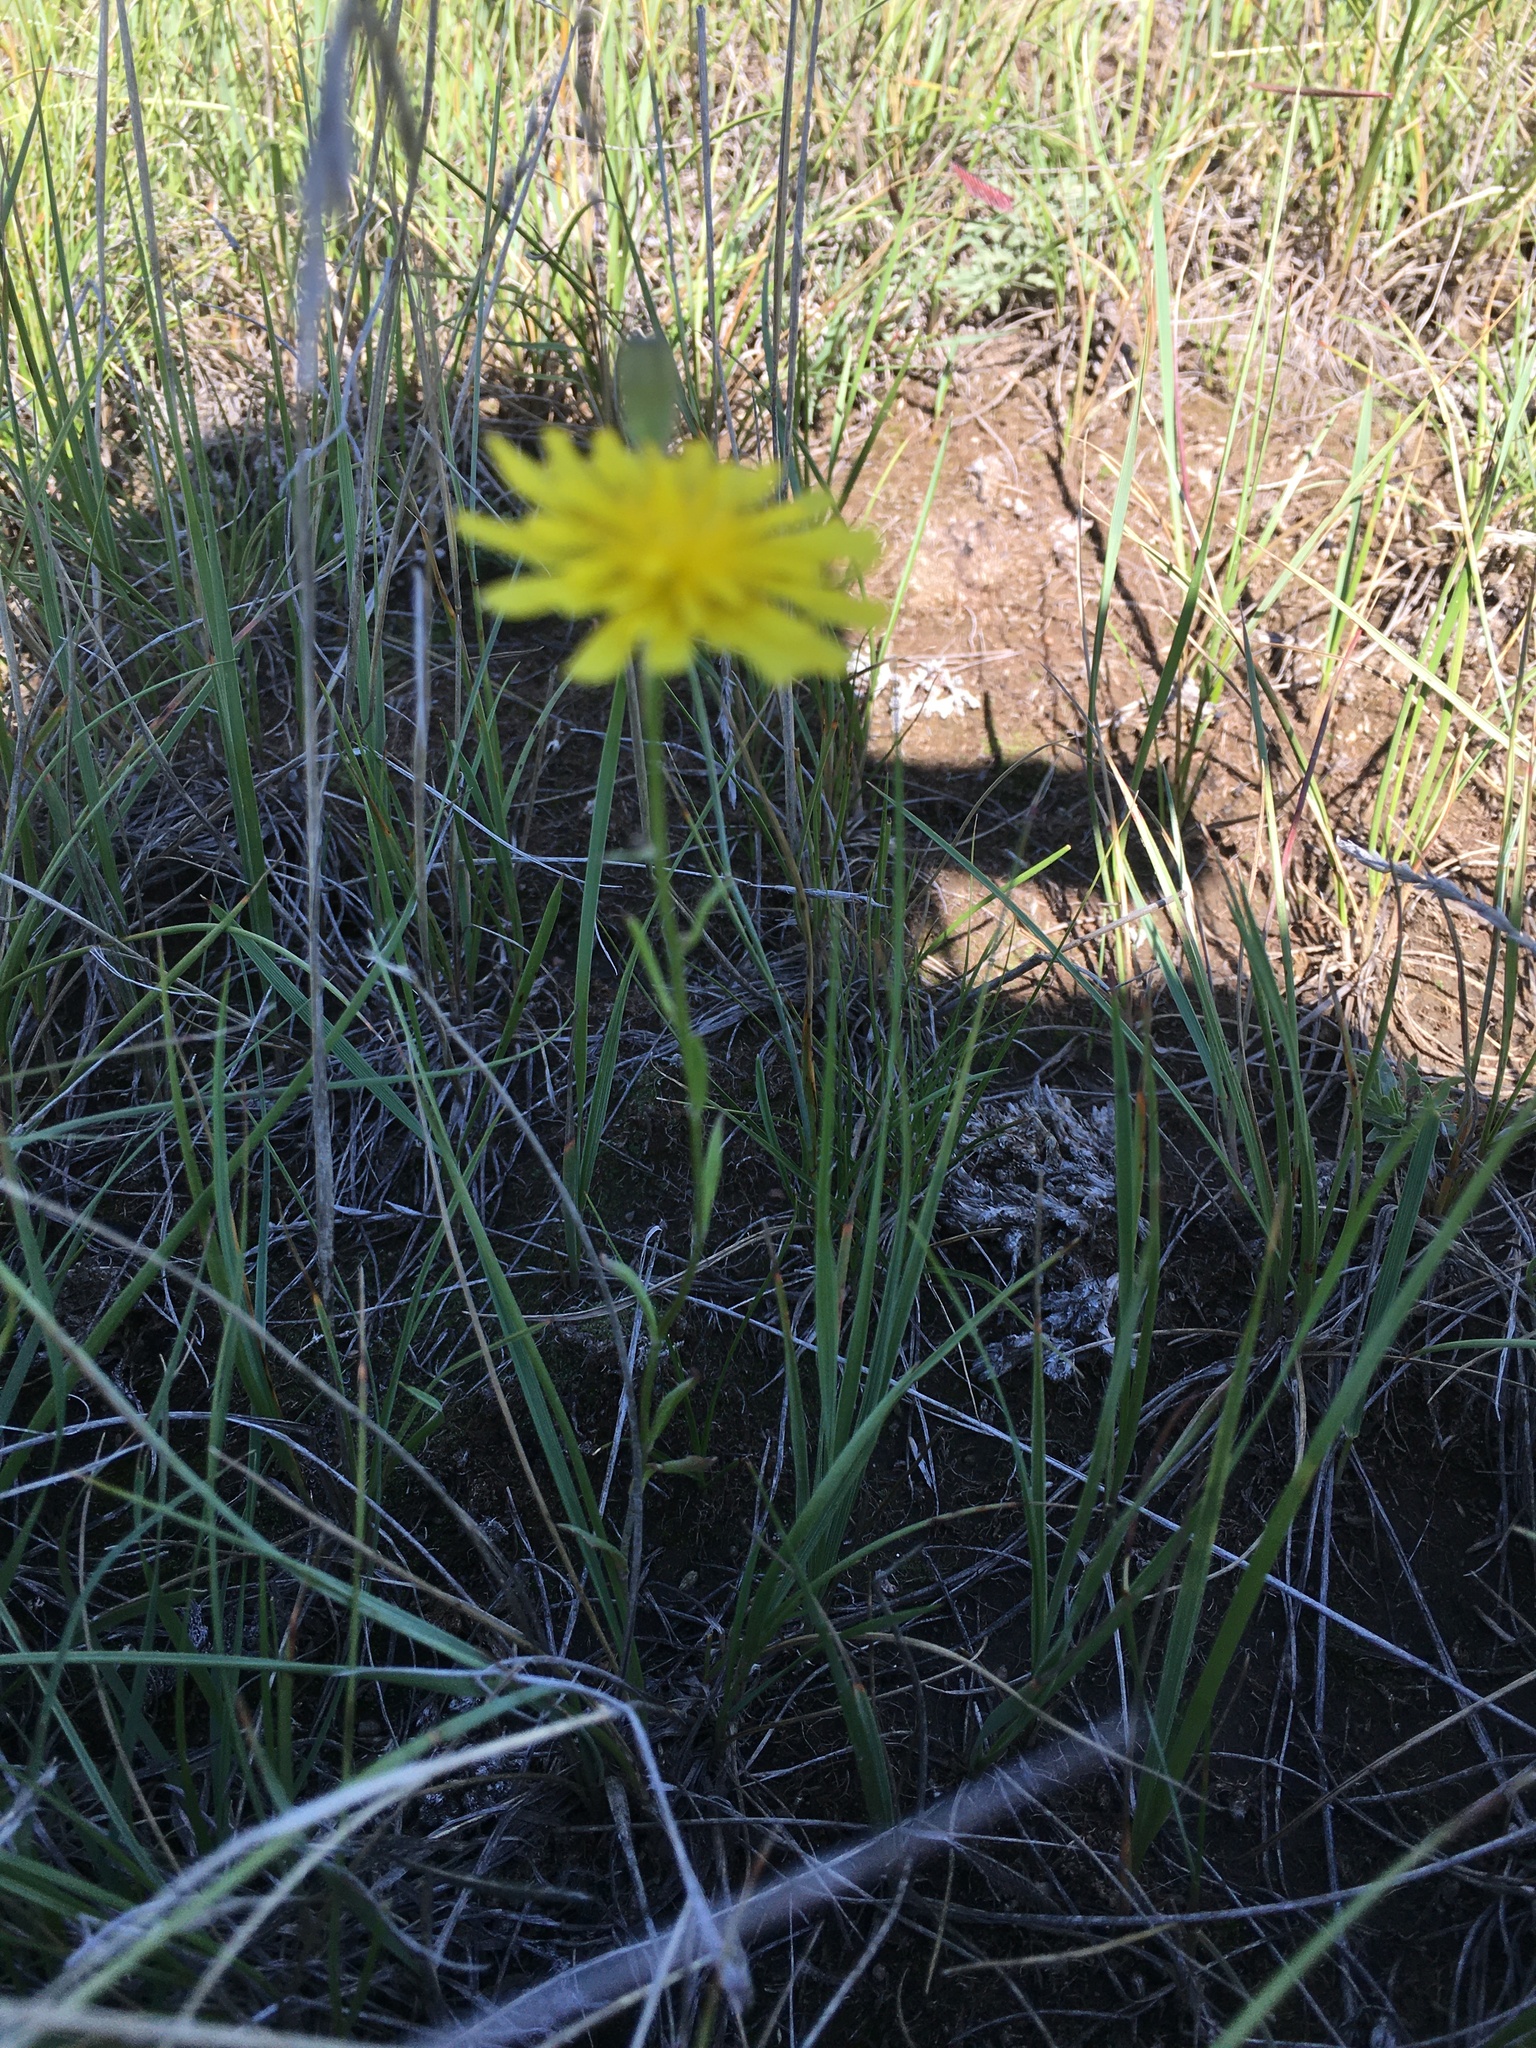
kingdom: Plantae
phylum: Tracheophyta
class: Magnoliopsida
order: Asterales
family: Asteraceae
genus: Crepis
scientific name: Crepis tectorum
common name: Narrow-leaved hawk's-beard
